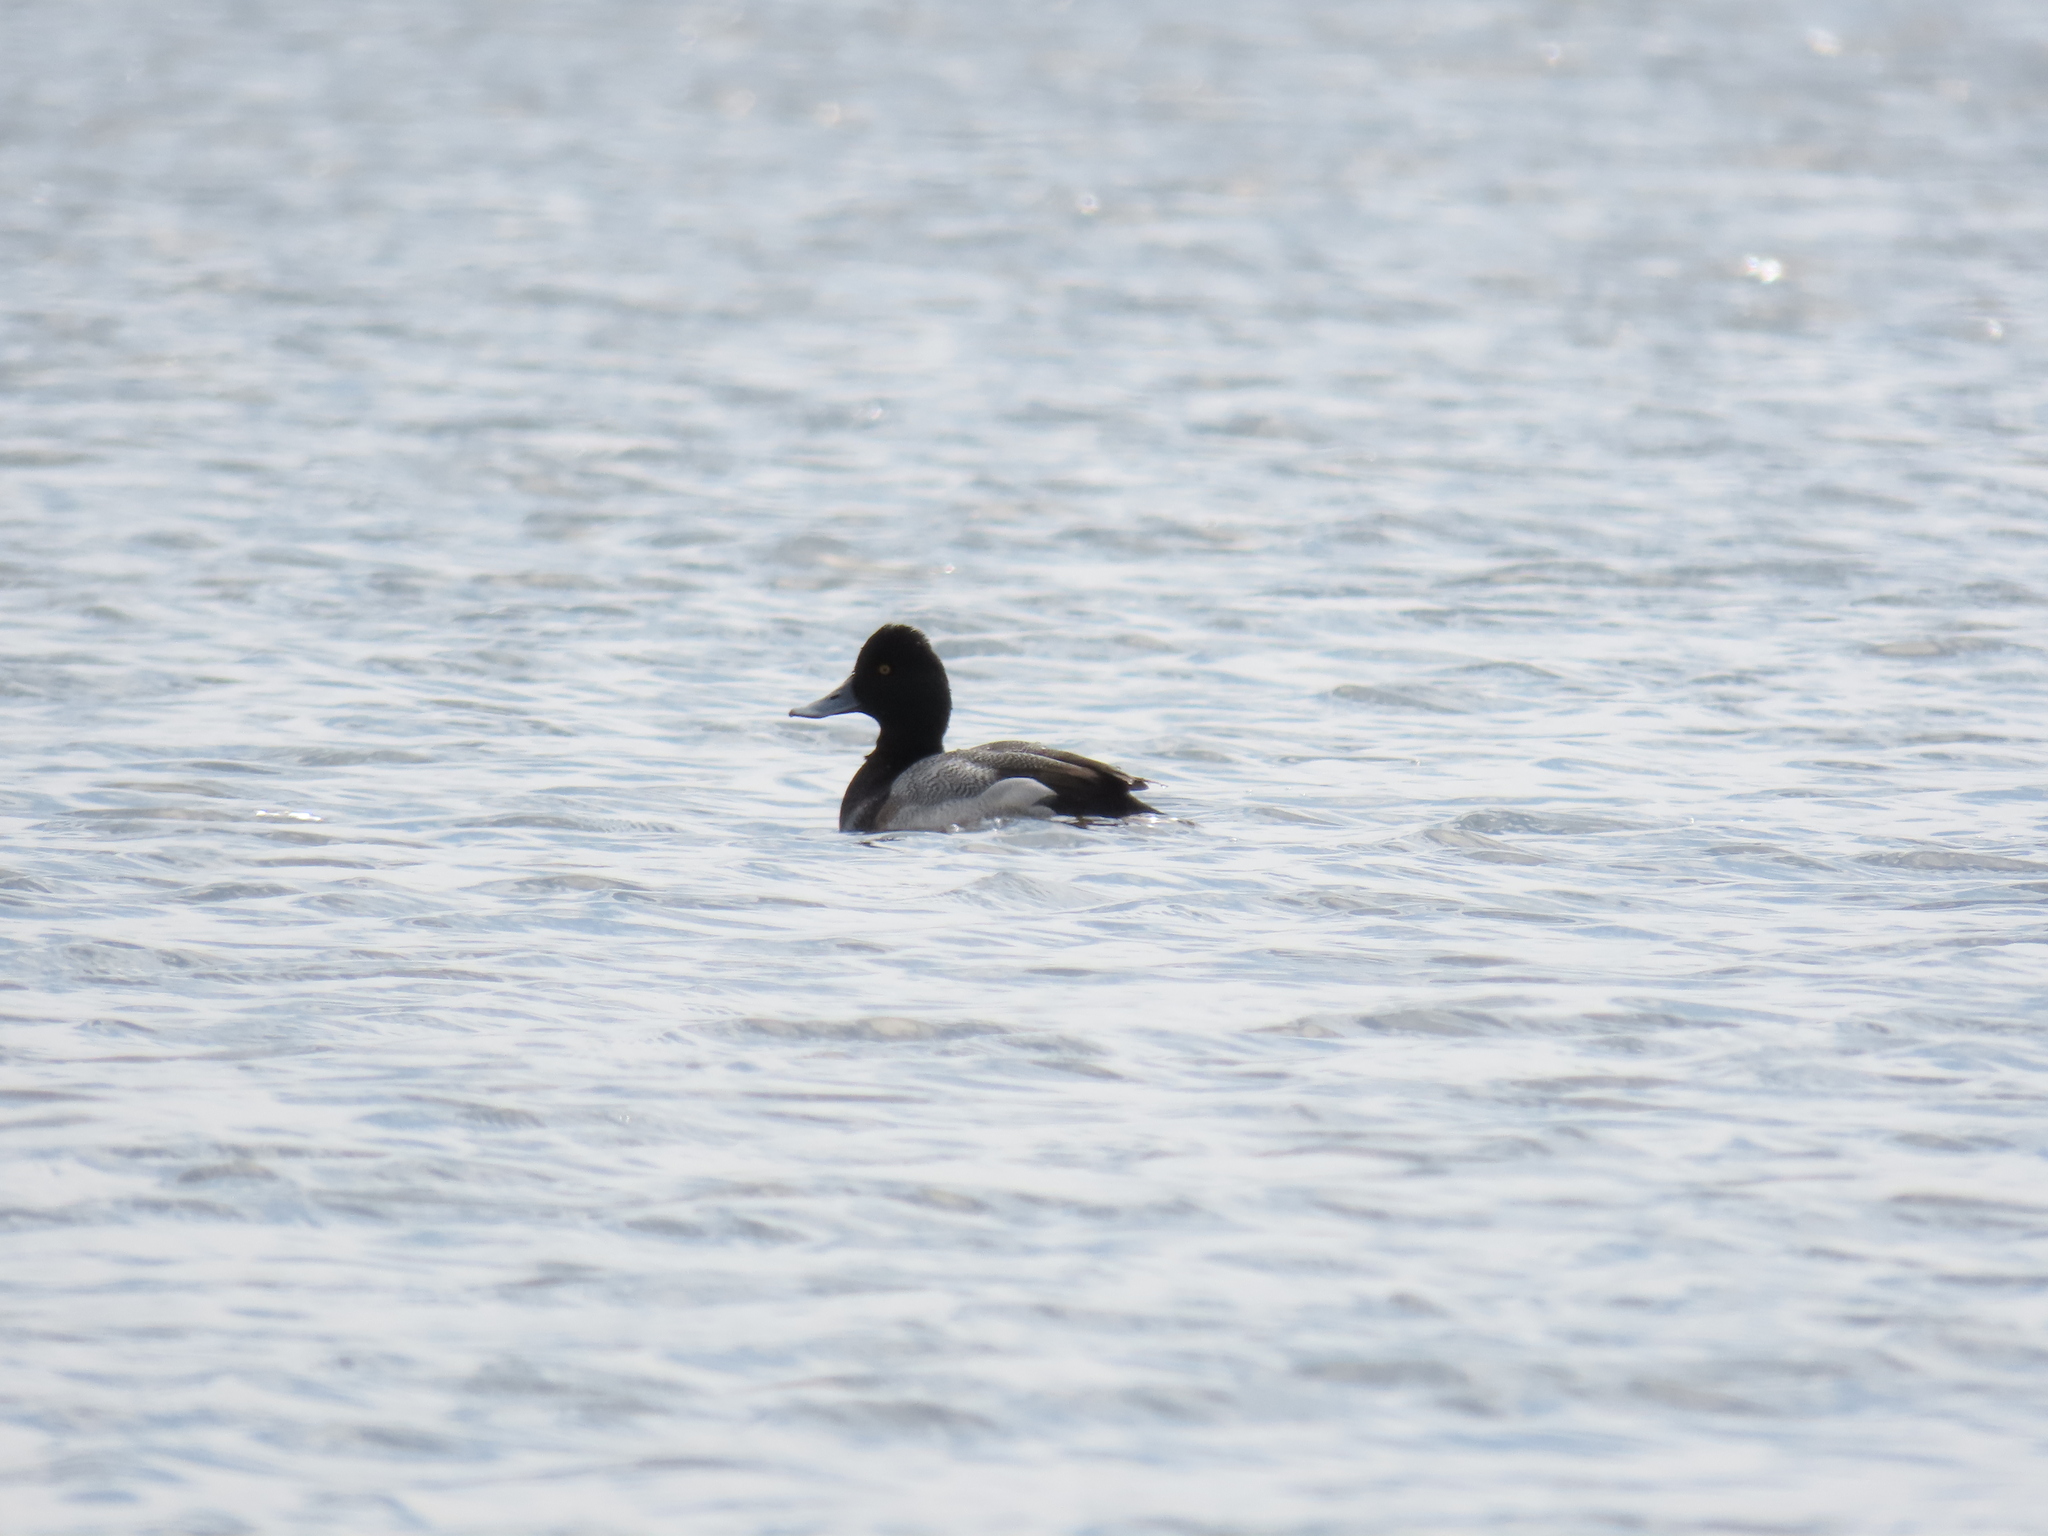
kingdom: Animalia
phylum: Chordata
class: Aves
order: Anseriformes
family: Anatidae
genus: Aythya
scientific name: Aythya affinis
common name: Lesser scaup
